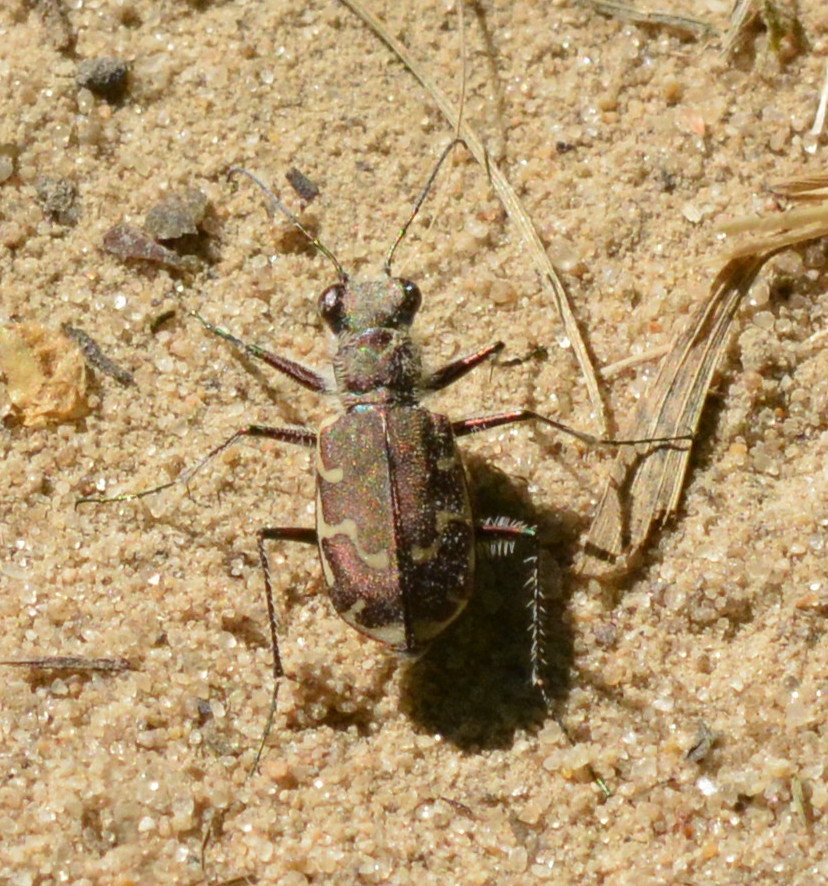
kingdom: Animalia
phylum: Arthropoda
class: Insecta
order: Coleoptera
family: Carabidae
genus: Cicindela
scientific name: Cicindela repanda
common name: Bronzed tiger beetle
